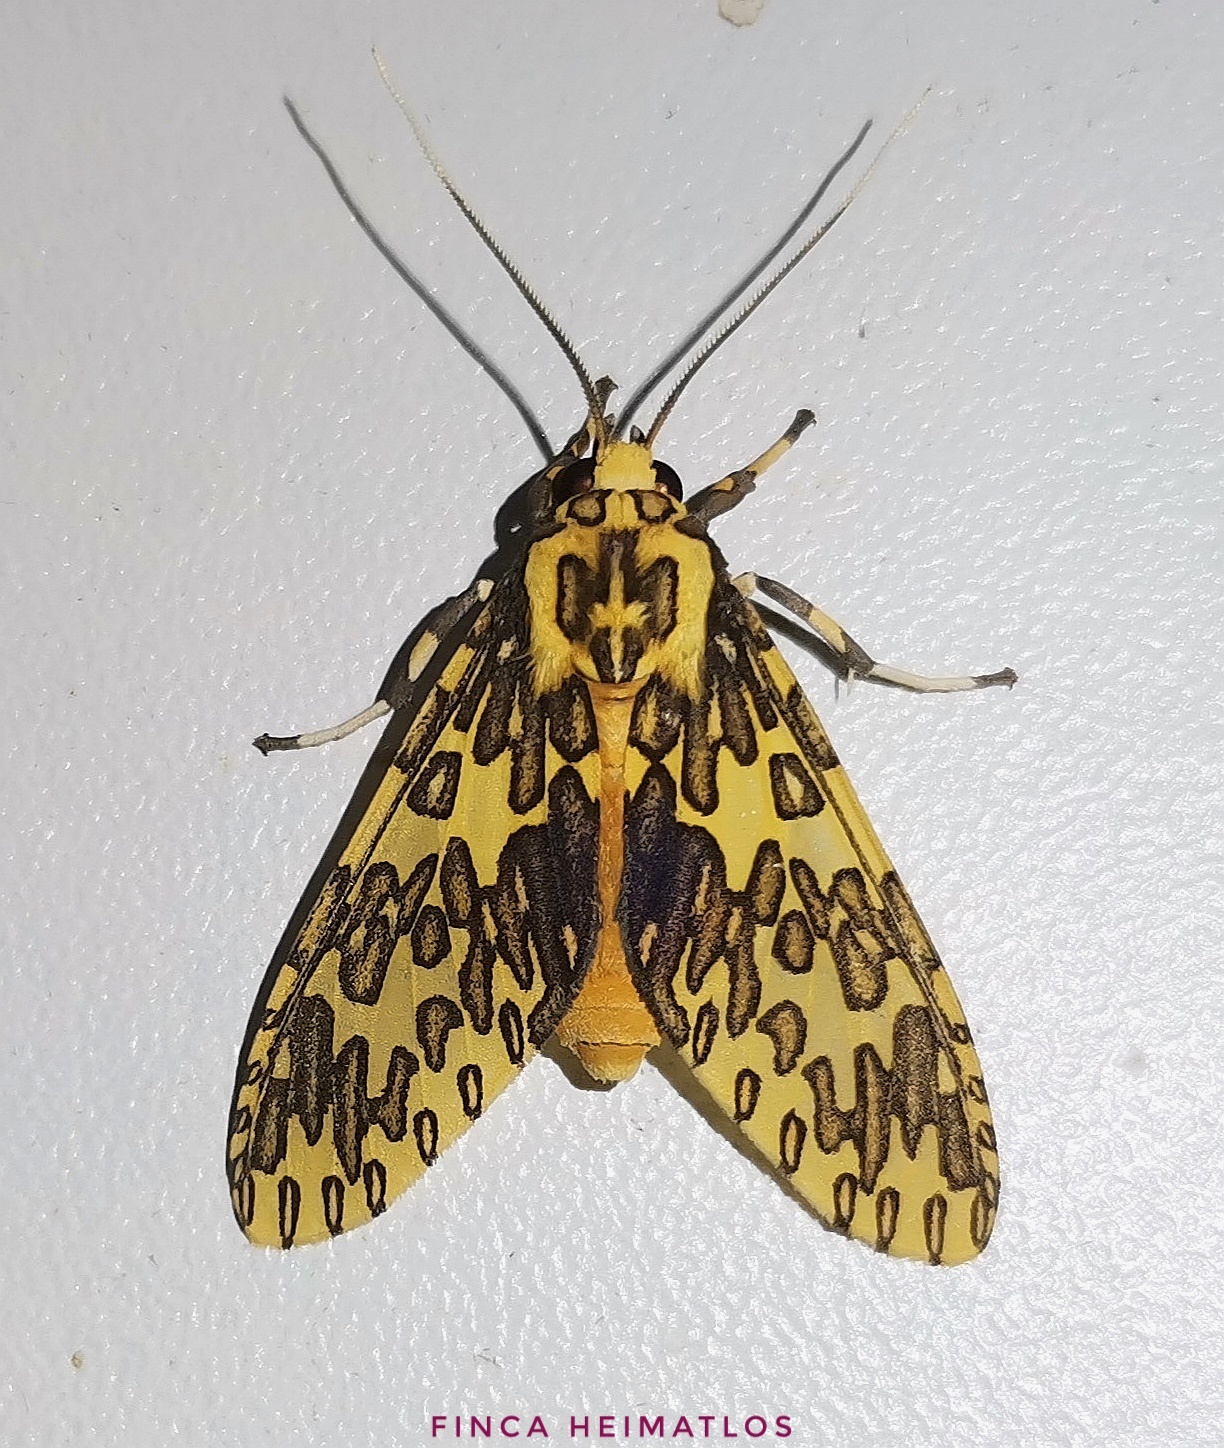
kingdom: Animalia
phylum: Arthropoda
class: Insecta
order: Lepidoptera
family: Erebidae
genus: Amaxia
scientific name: Amaxia pandama
